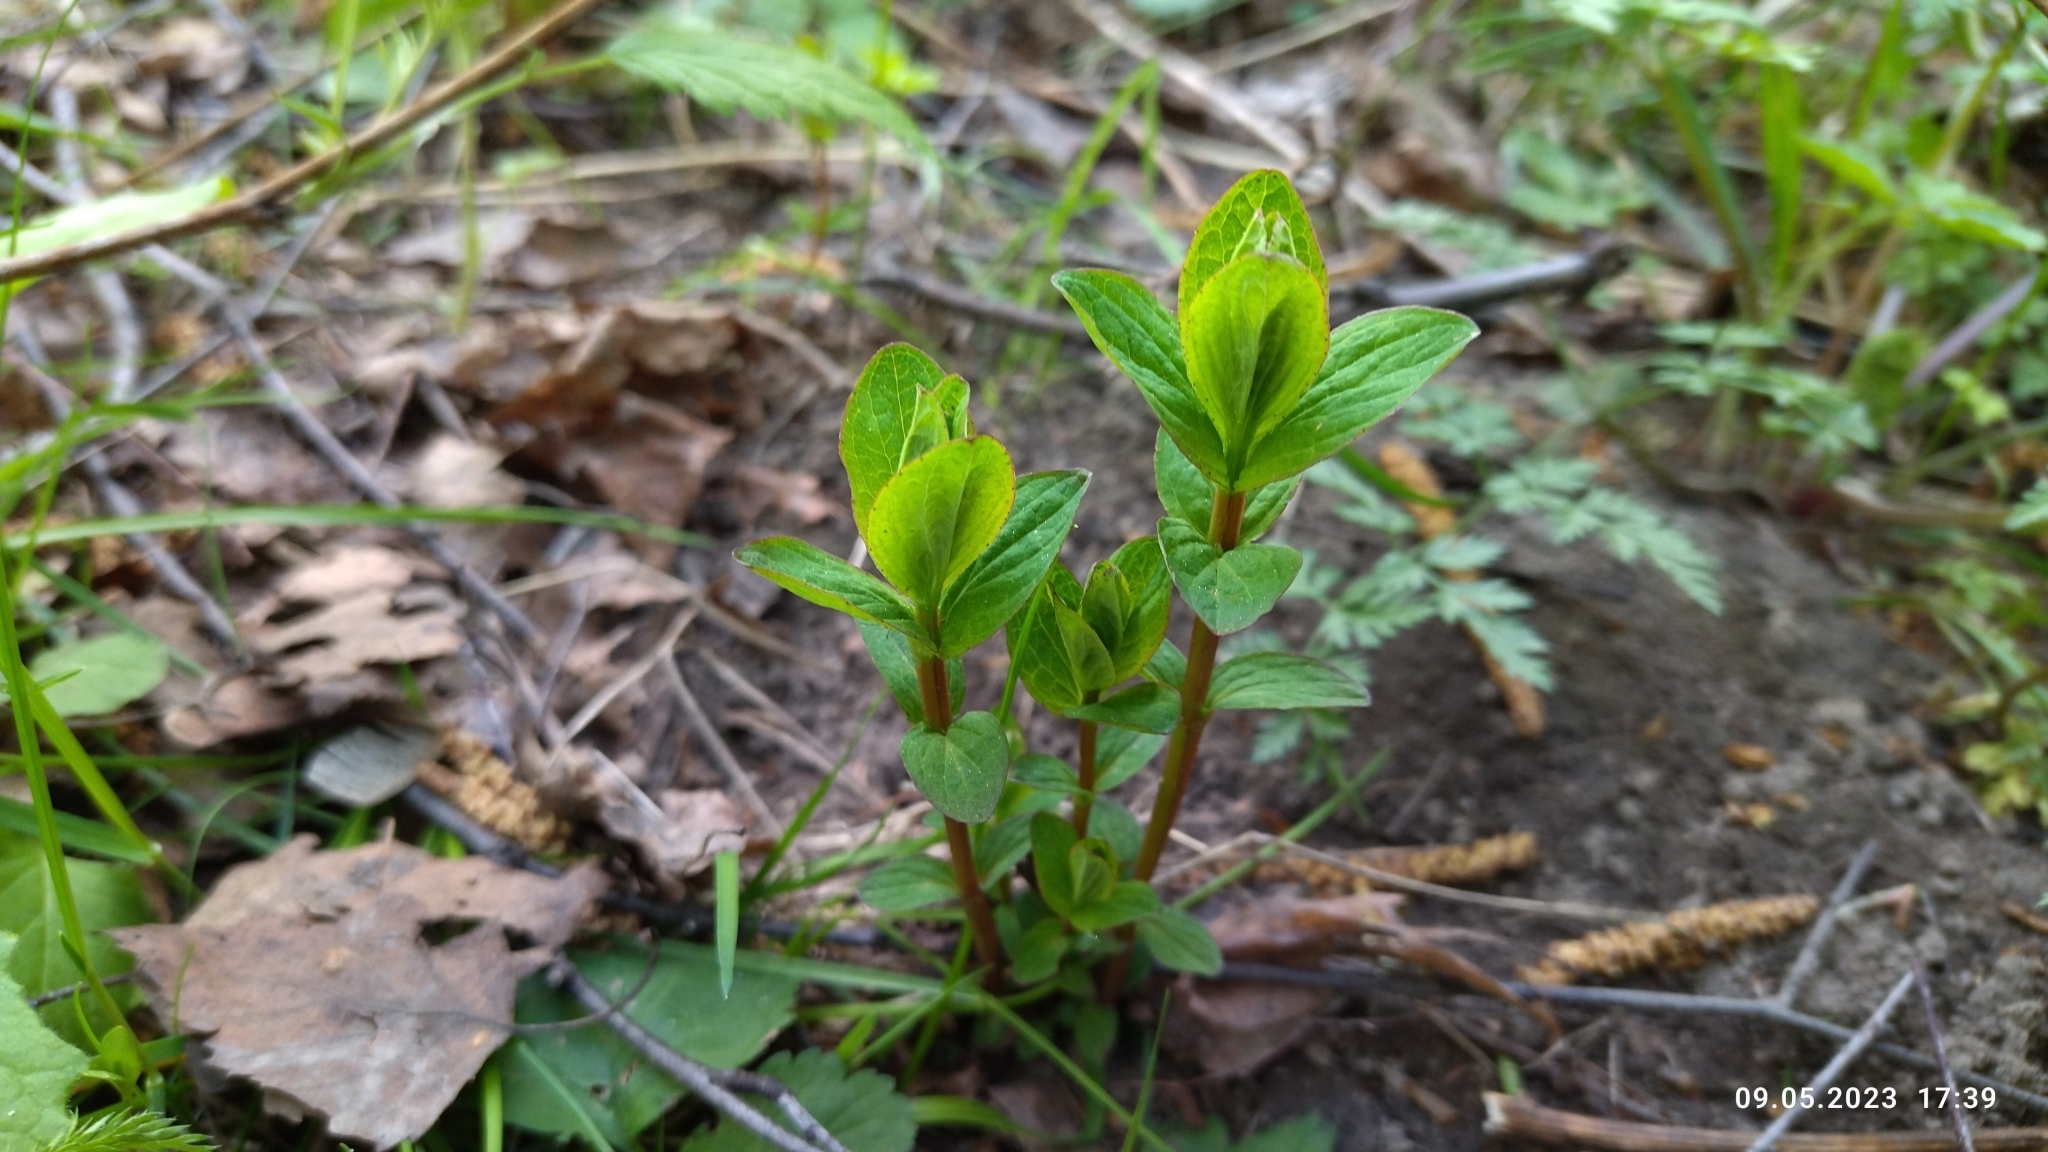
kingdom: Plantae
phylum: Tracheophyta
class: Magnoliopsida
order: Malpighiales
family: Hypericaceae
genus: Hypericum
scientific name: Hypericum maculatum
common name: Imperforate st. john's-wort
